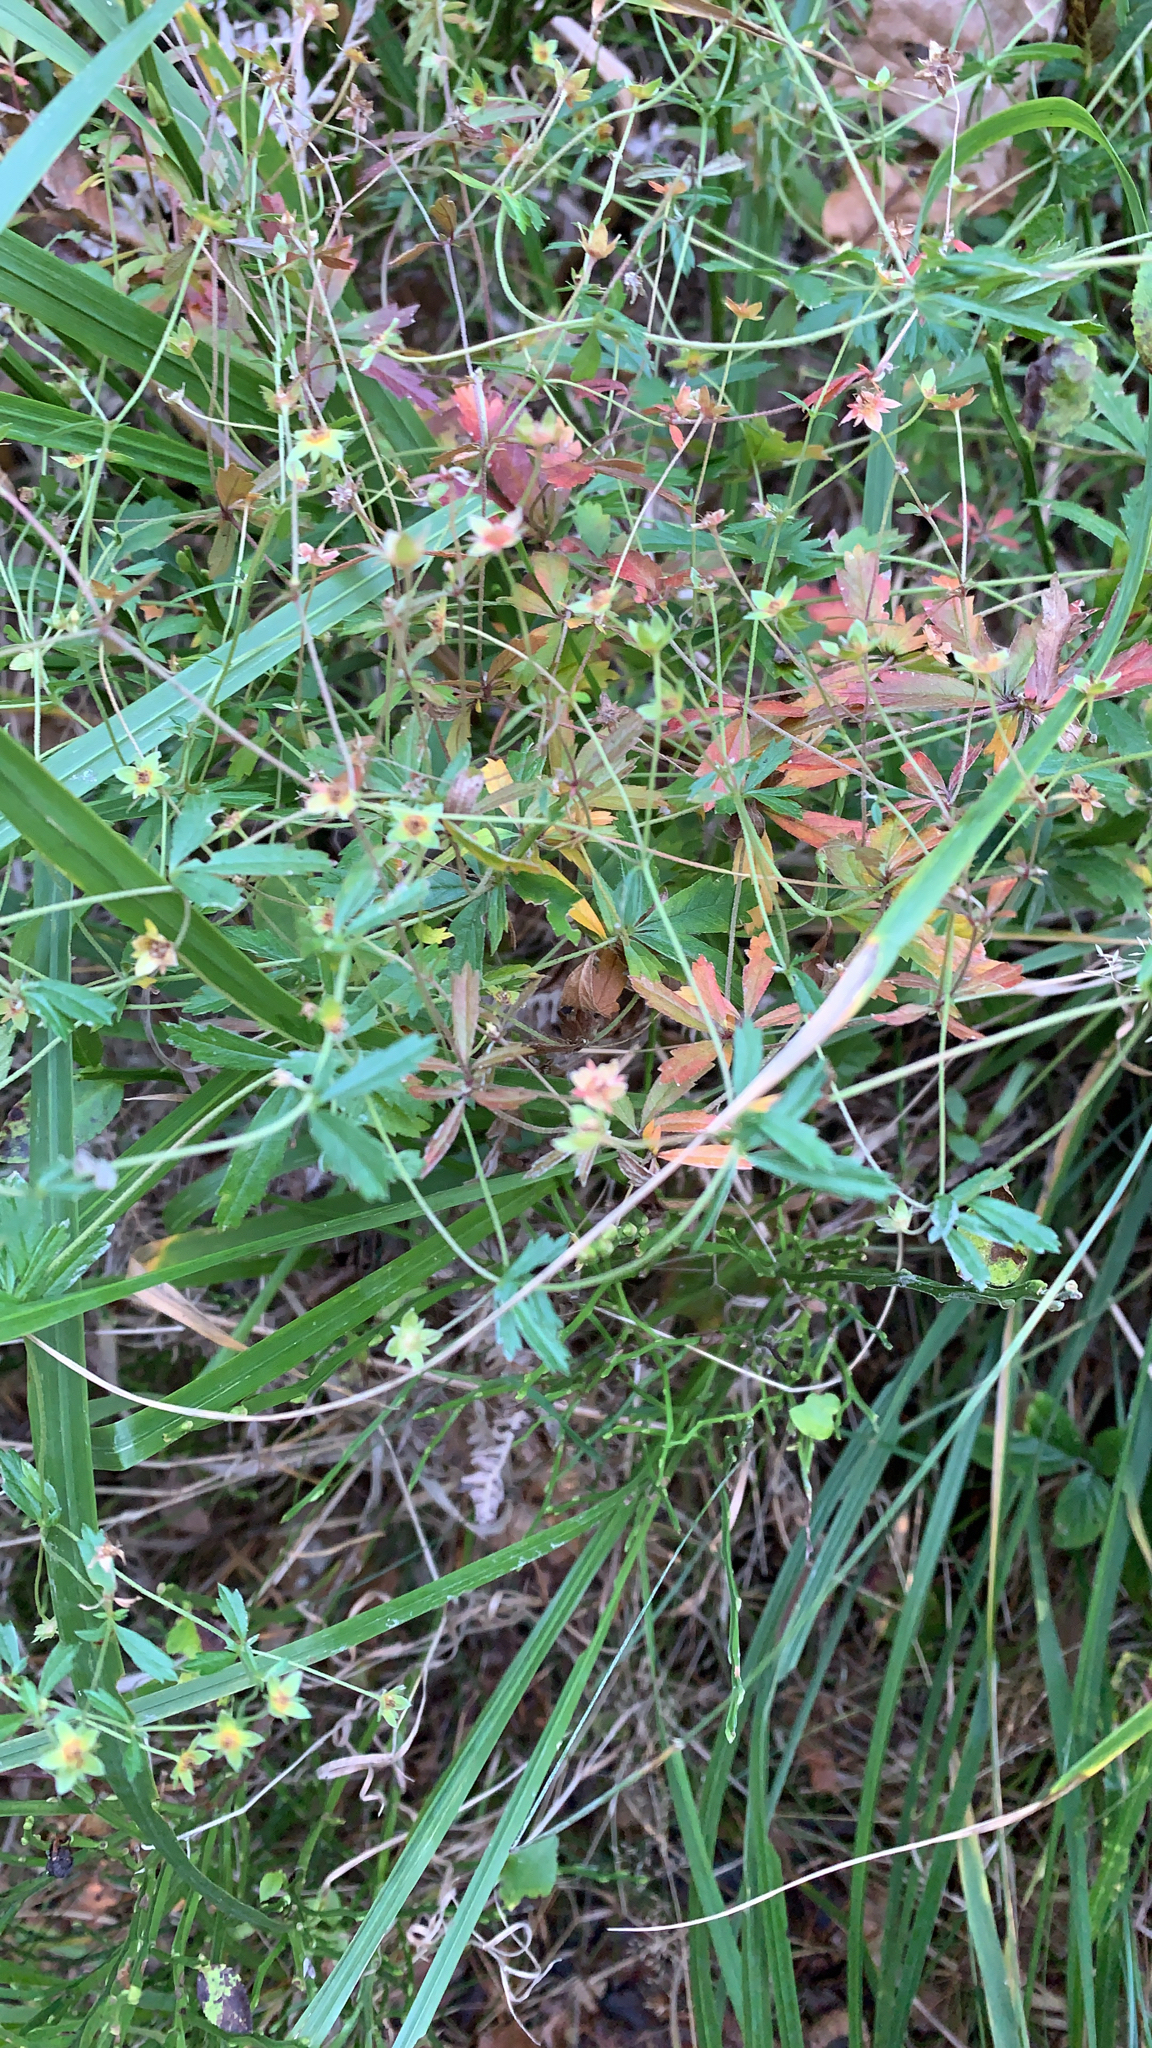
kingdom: Plantae
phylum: Tracheophyta
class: Magnoliopsida
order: Rosales
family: Rosaceae
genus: Potentilla
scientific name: Potentilla erecta
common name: Tormentil
